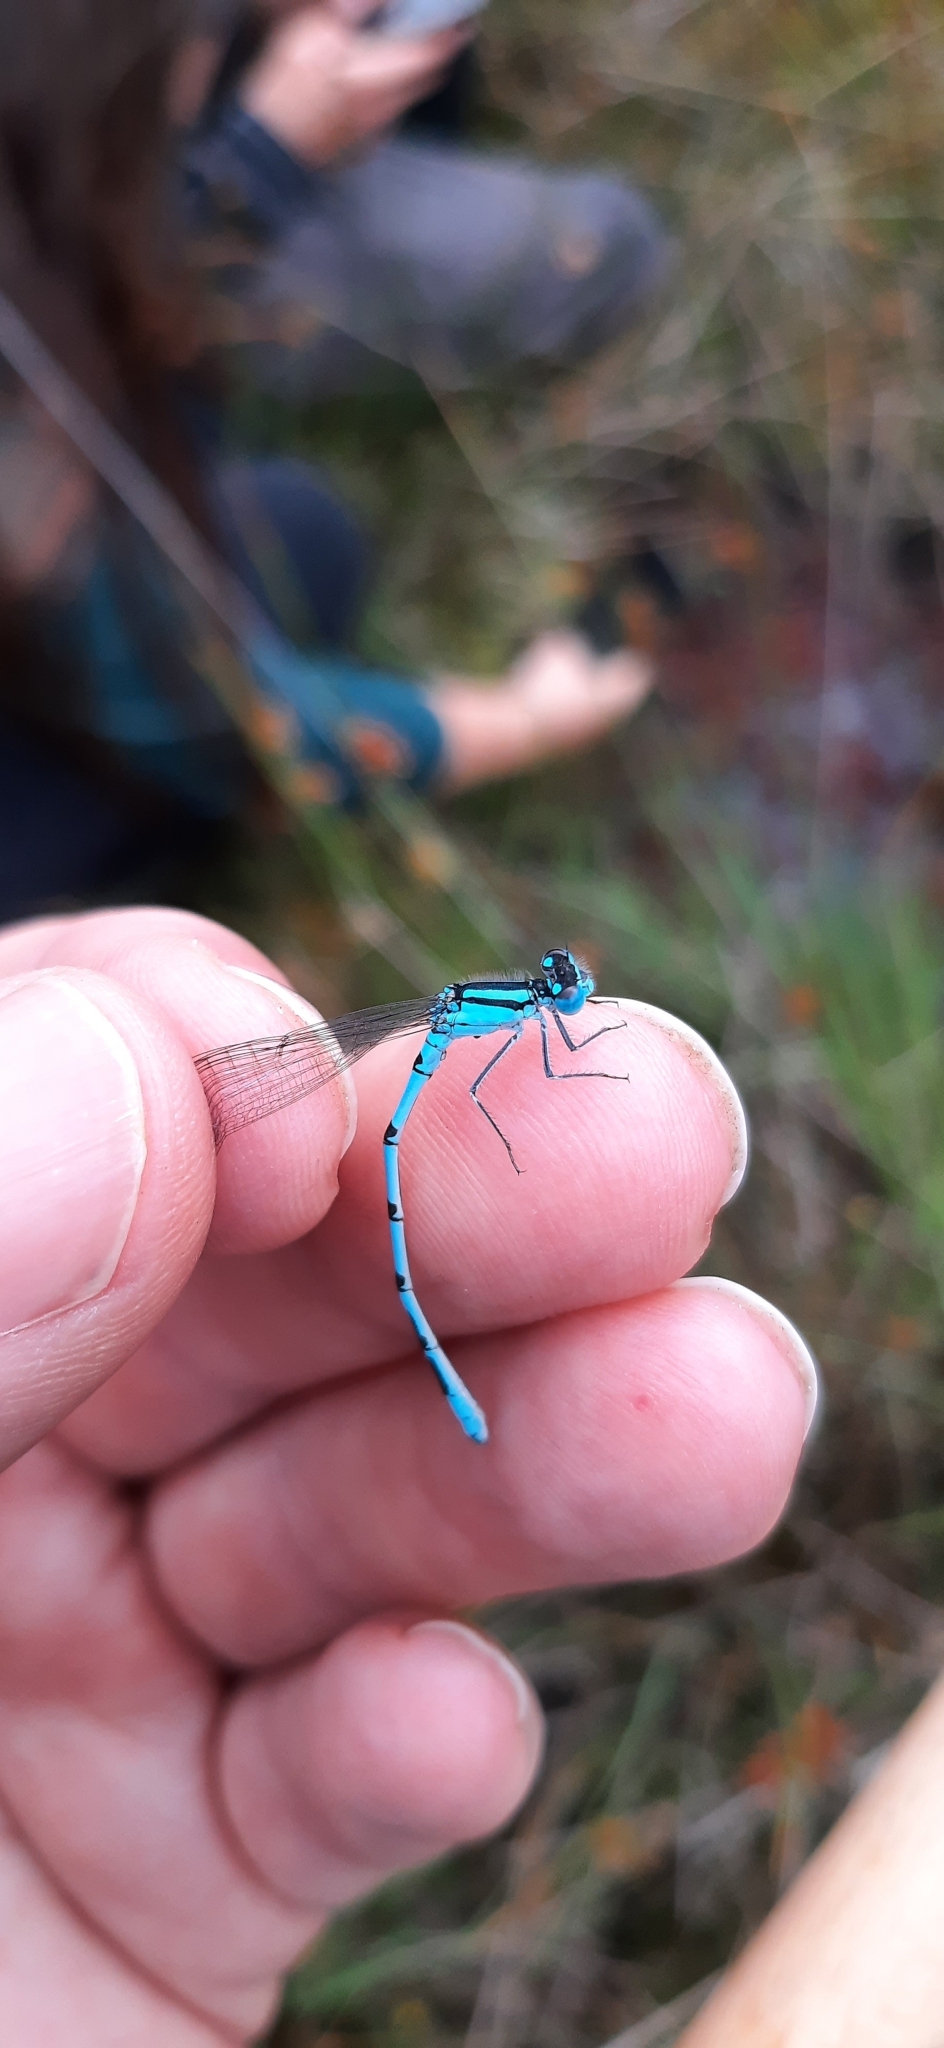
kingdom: Animalia
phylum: Arthropoda
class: Insecta
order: Odonata
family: Coenagrionidae
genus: Enallagma
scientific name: Enallagma cyathigerum
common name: Common blue damselfly
